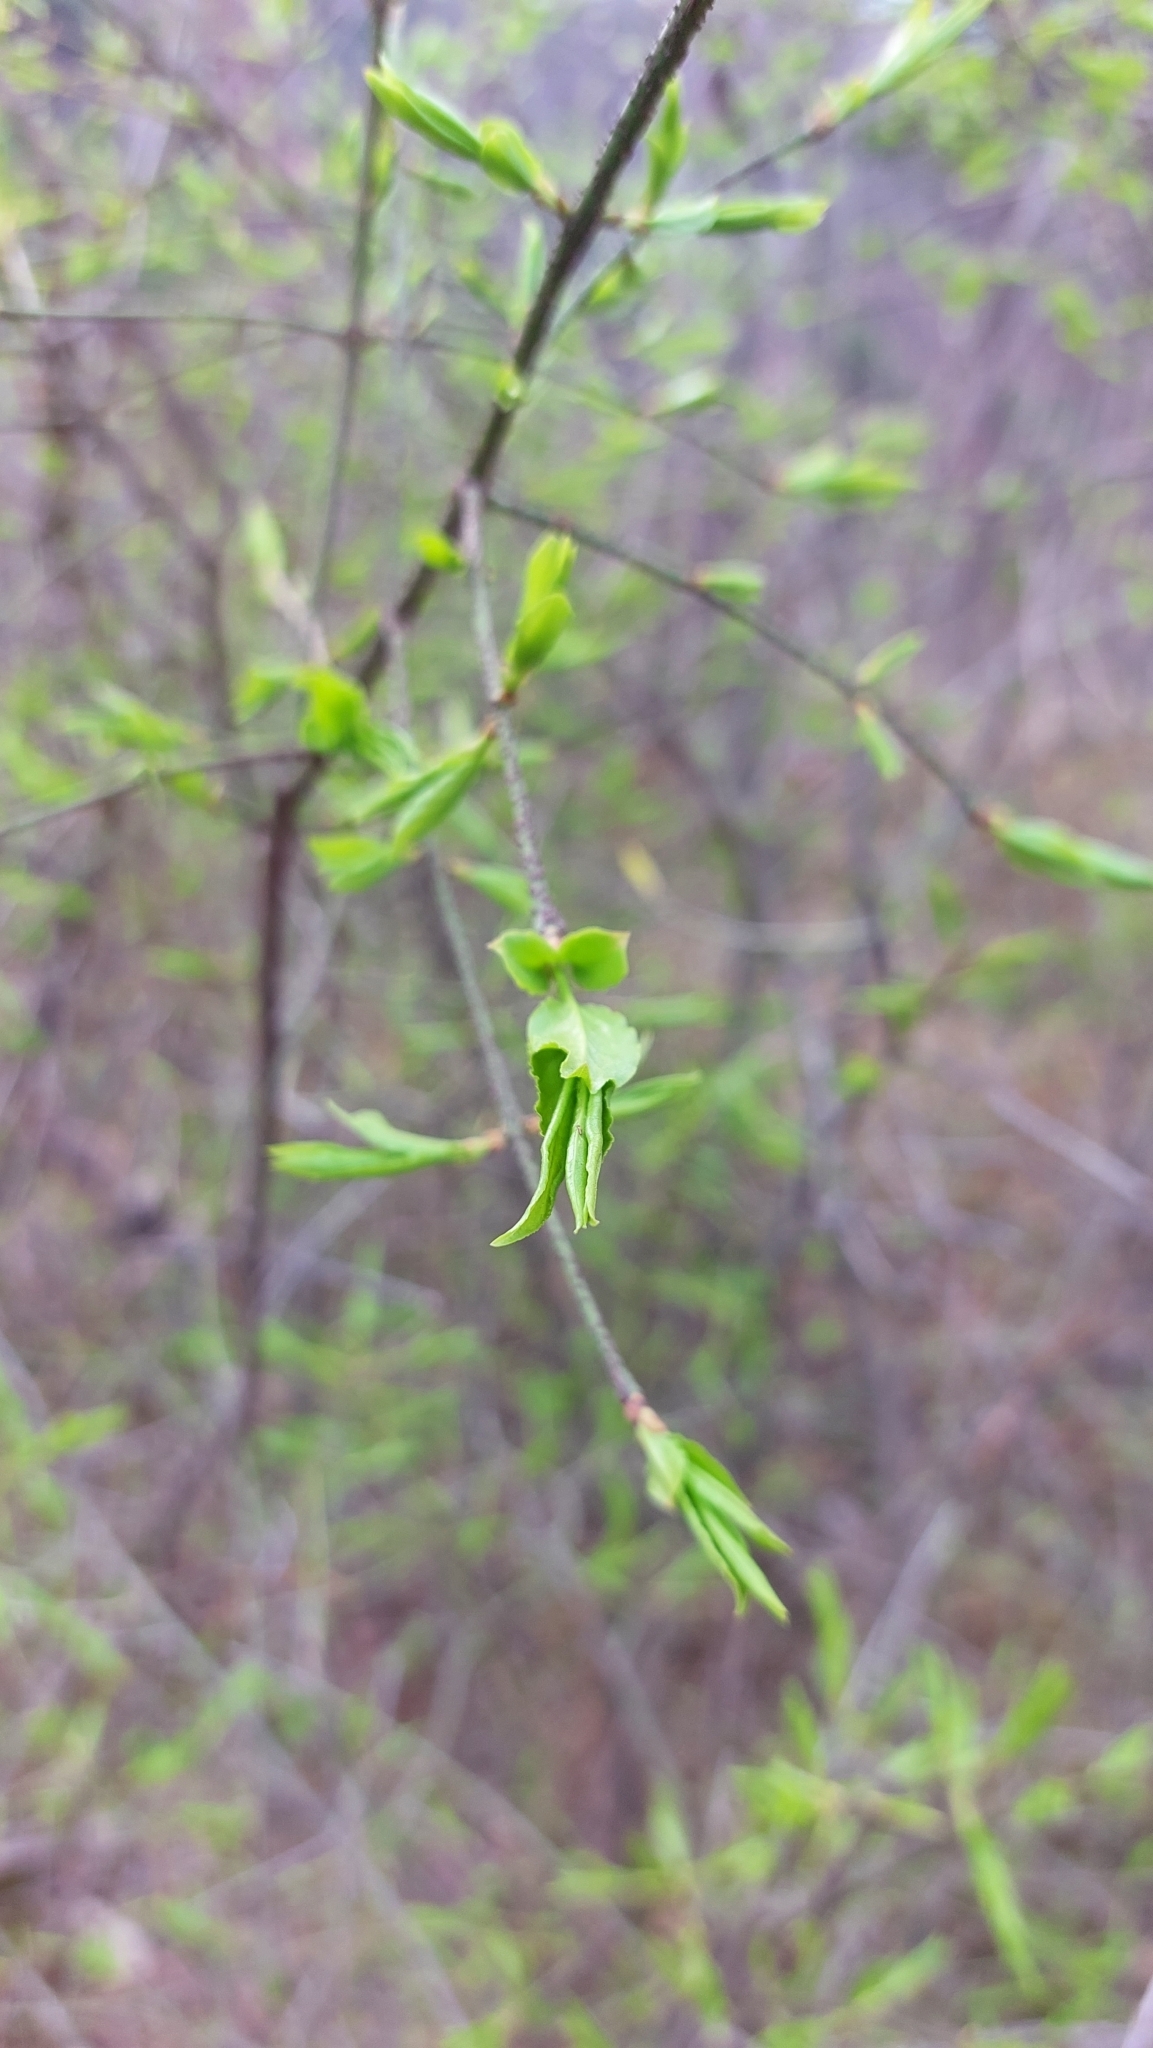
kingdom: Plantae
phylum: Tracheophyta
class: Magnoliopsida
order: Celastrales
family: Celastraceae
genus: Euonymus
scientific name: Euonymus verrucosus
